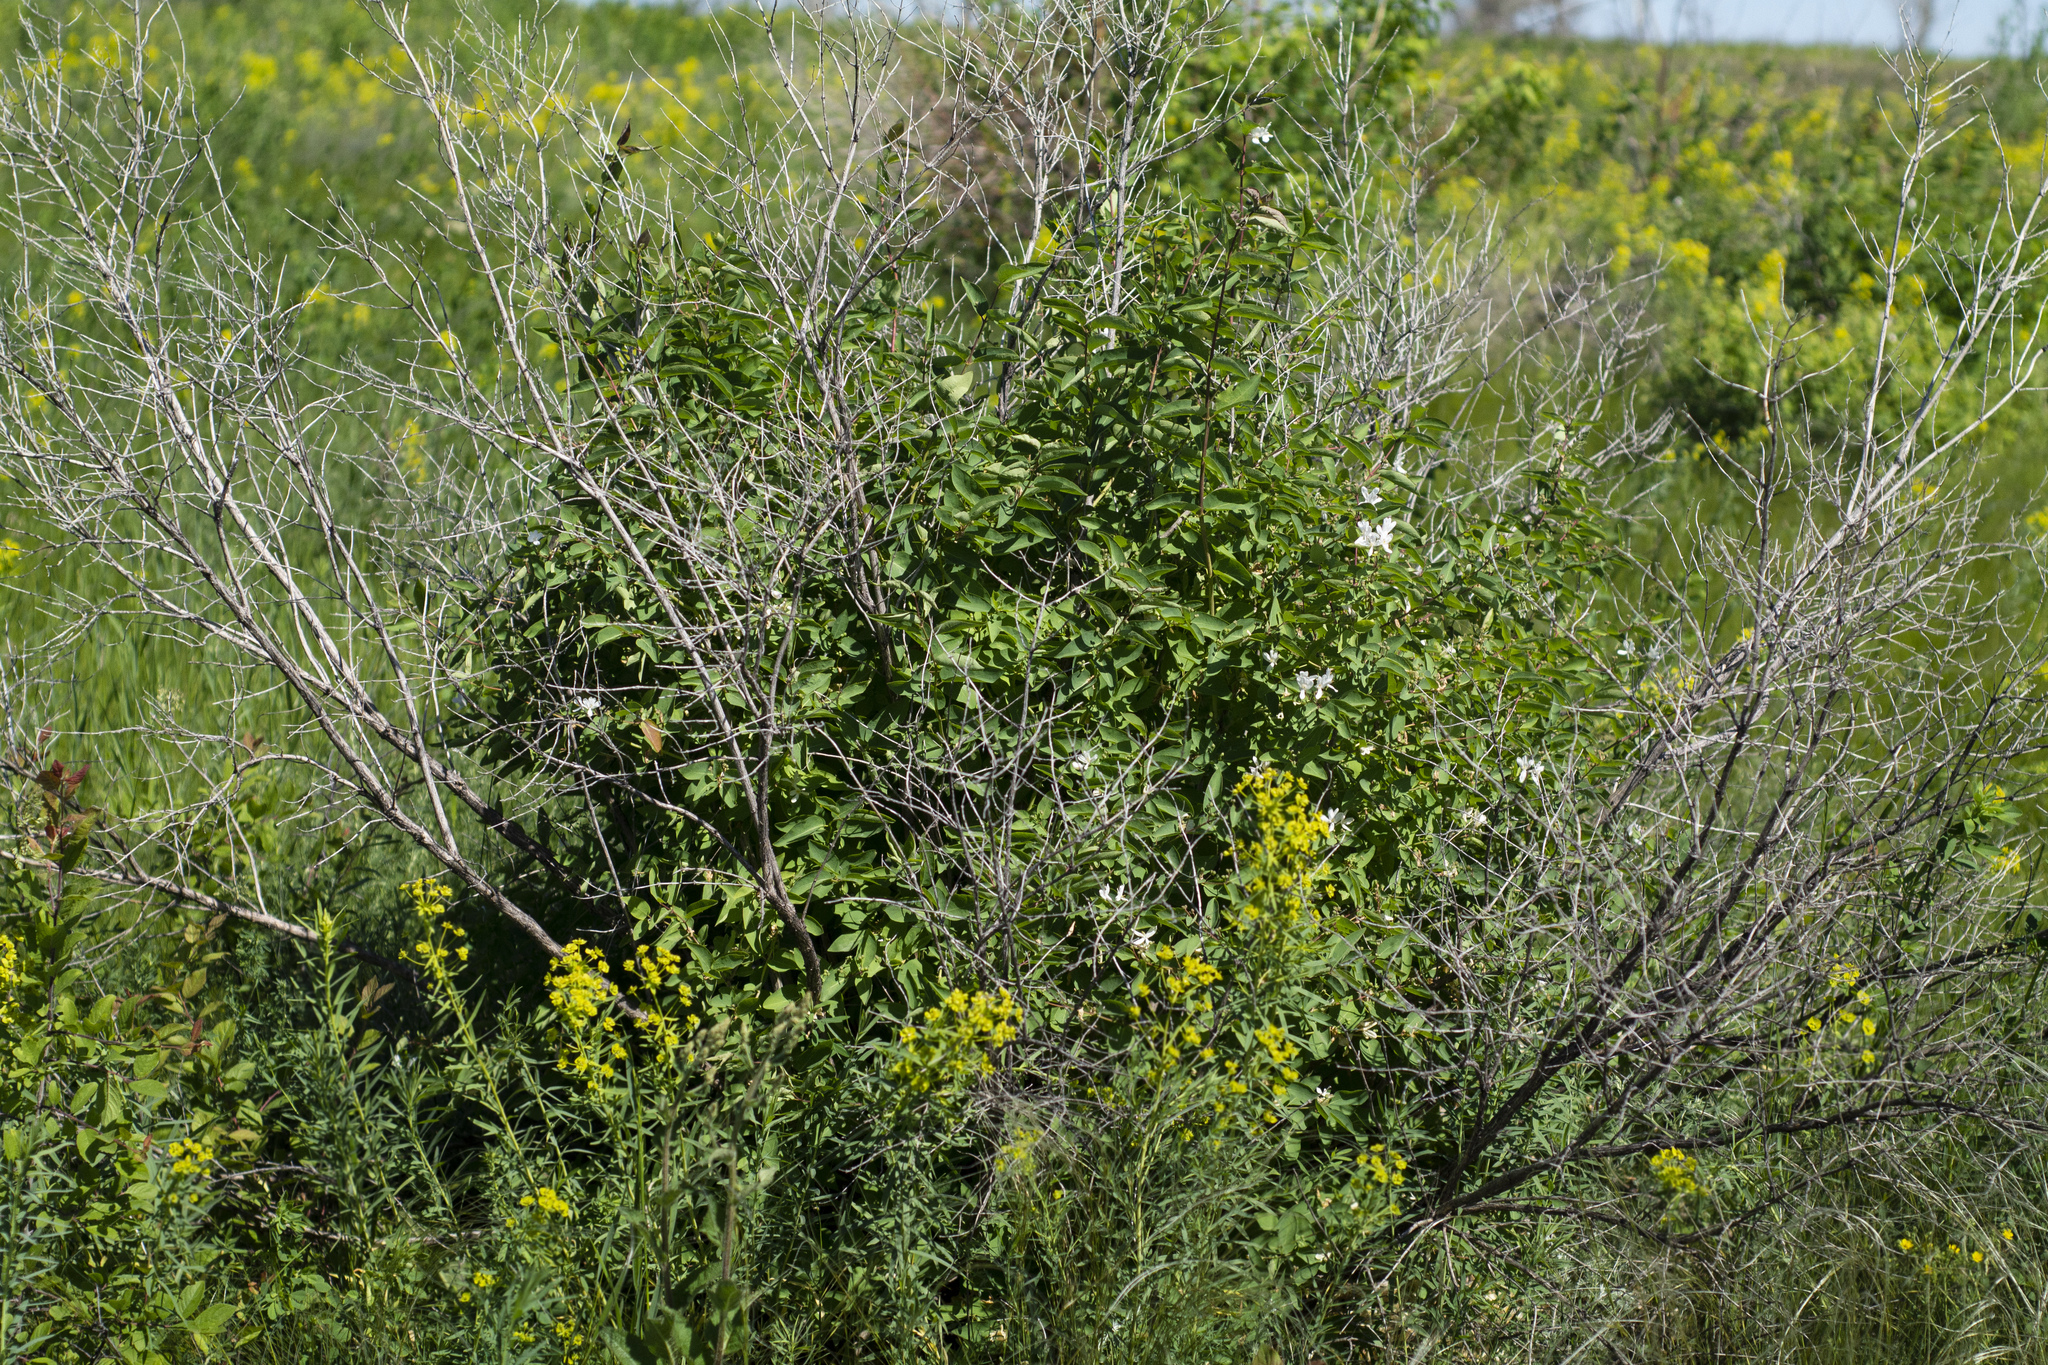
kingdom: Plantae
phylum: Tracheophyta
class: Magnoliopsida
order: Dipsacales
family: Caprifoliaceae
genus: Lonicera
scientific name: Lonicera tatarica
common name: Tatarian honeysuckle
